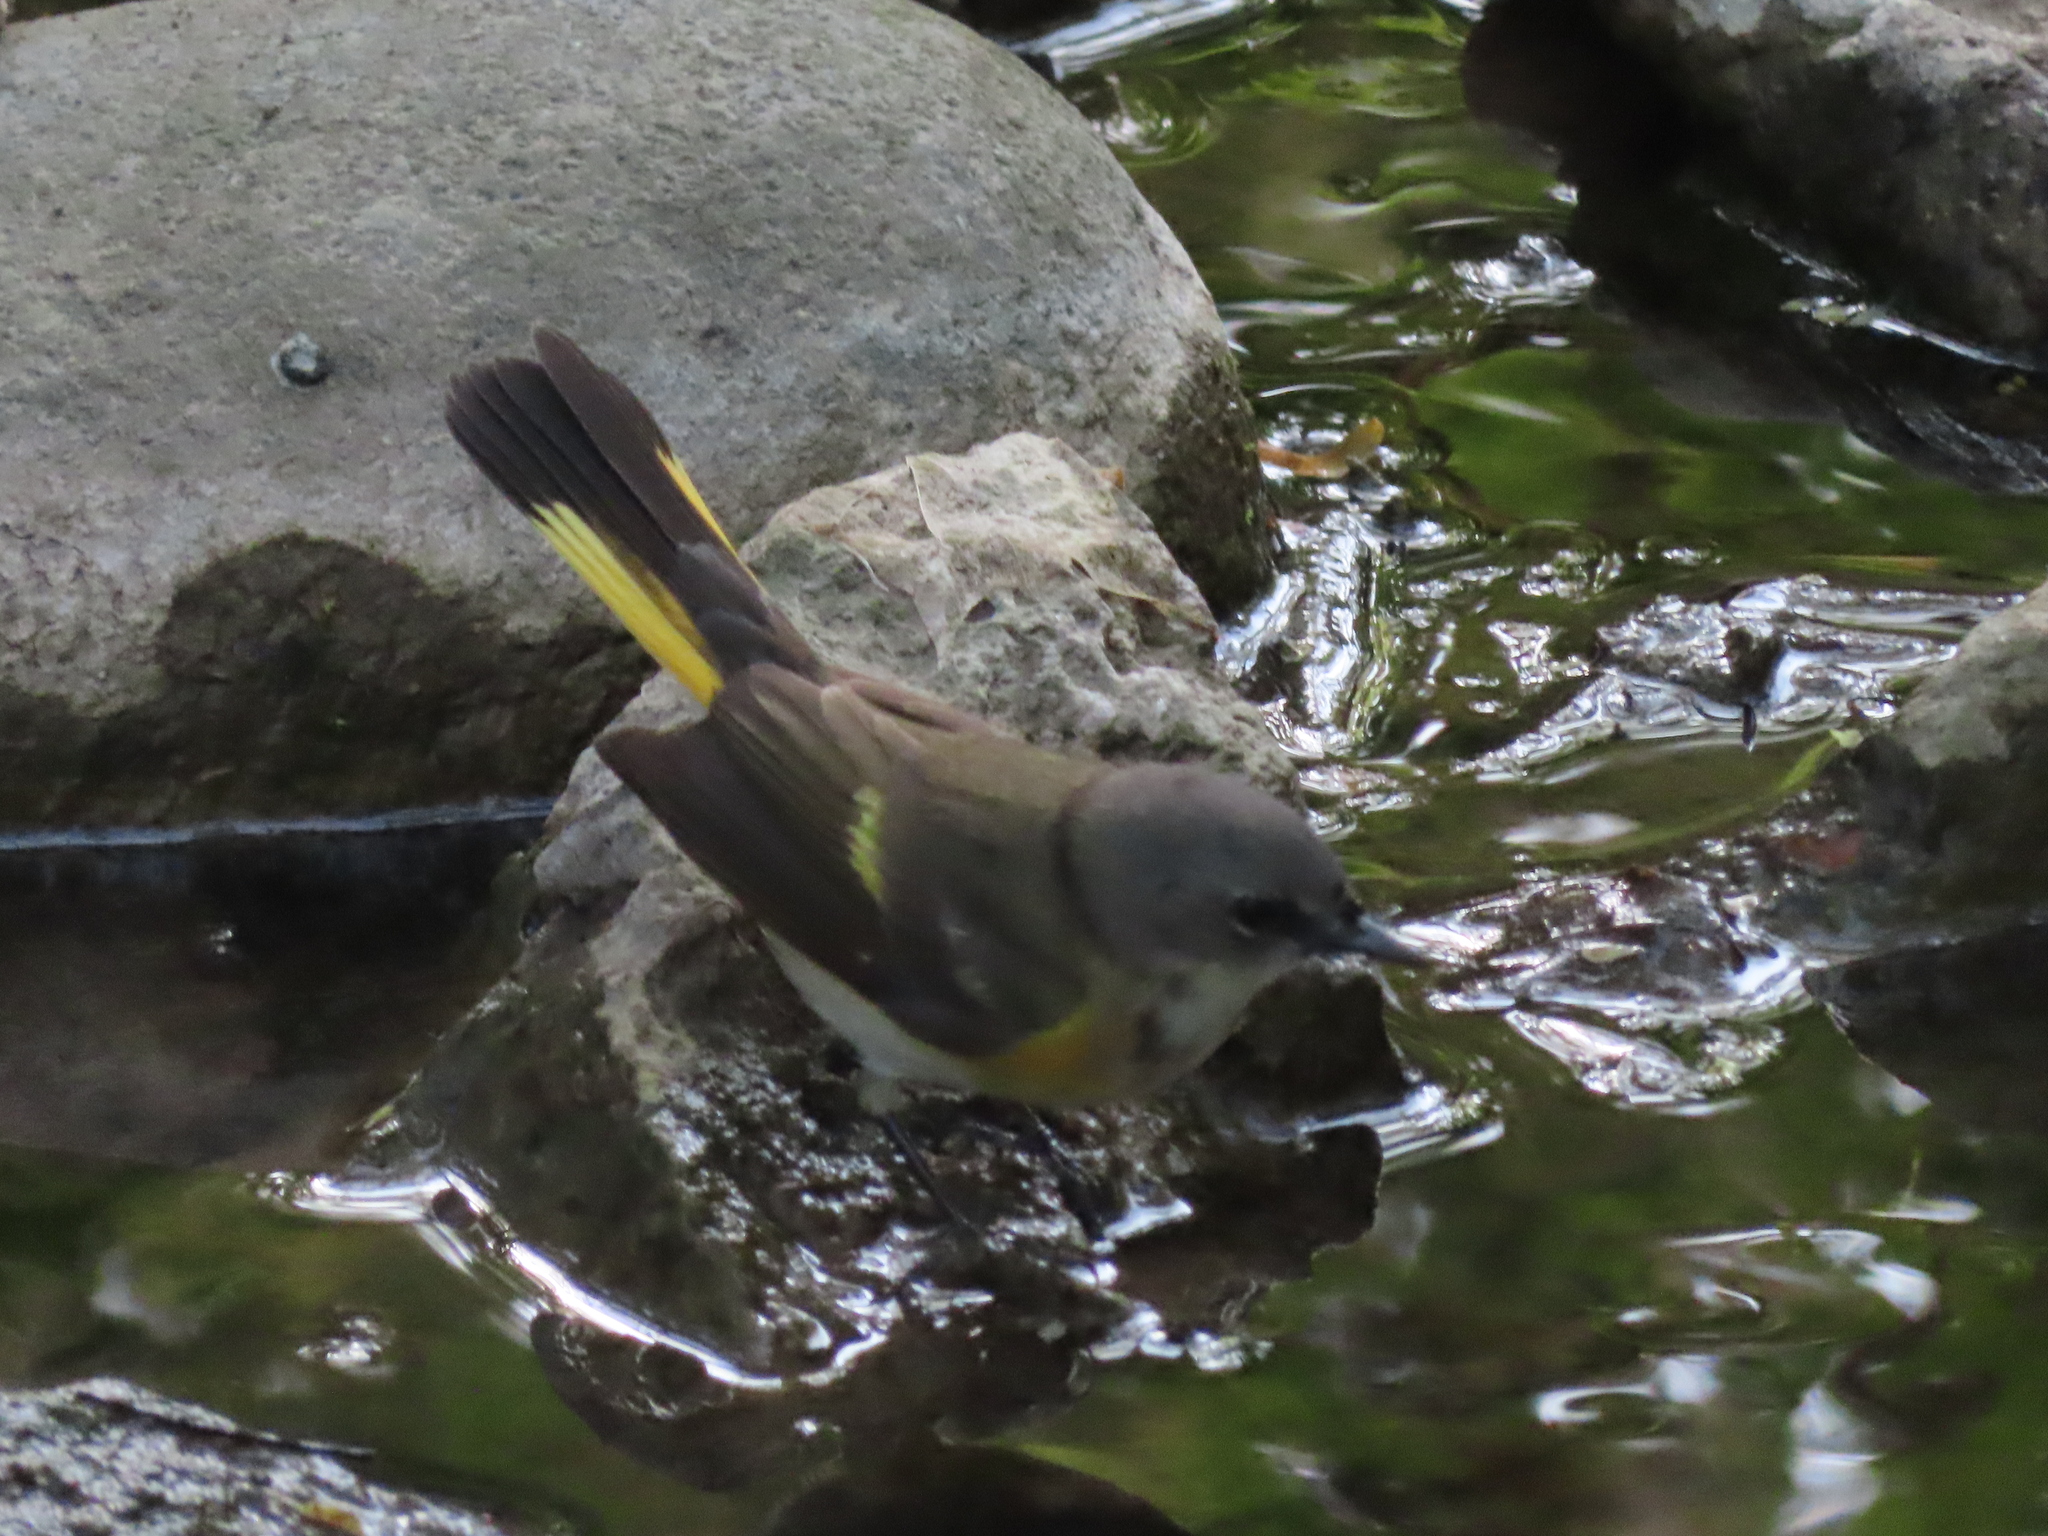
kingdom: Animalia
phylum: Chordata
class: Aves
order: Passeriformes
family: Parulidae
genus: Setophaga
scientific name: Setophaga ruticilla
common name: American redstart
